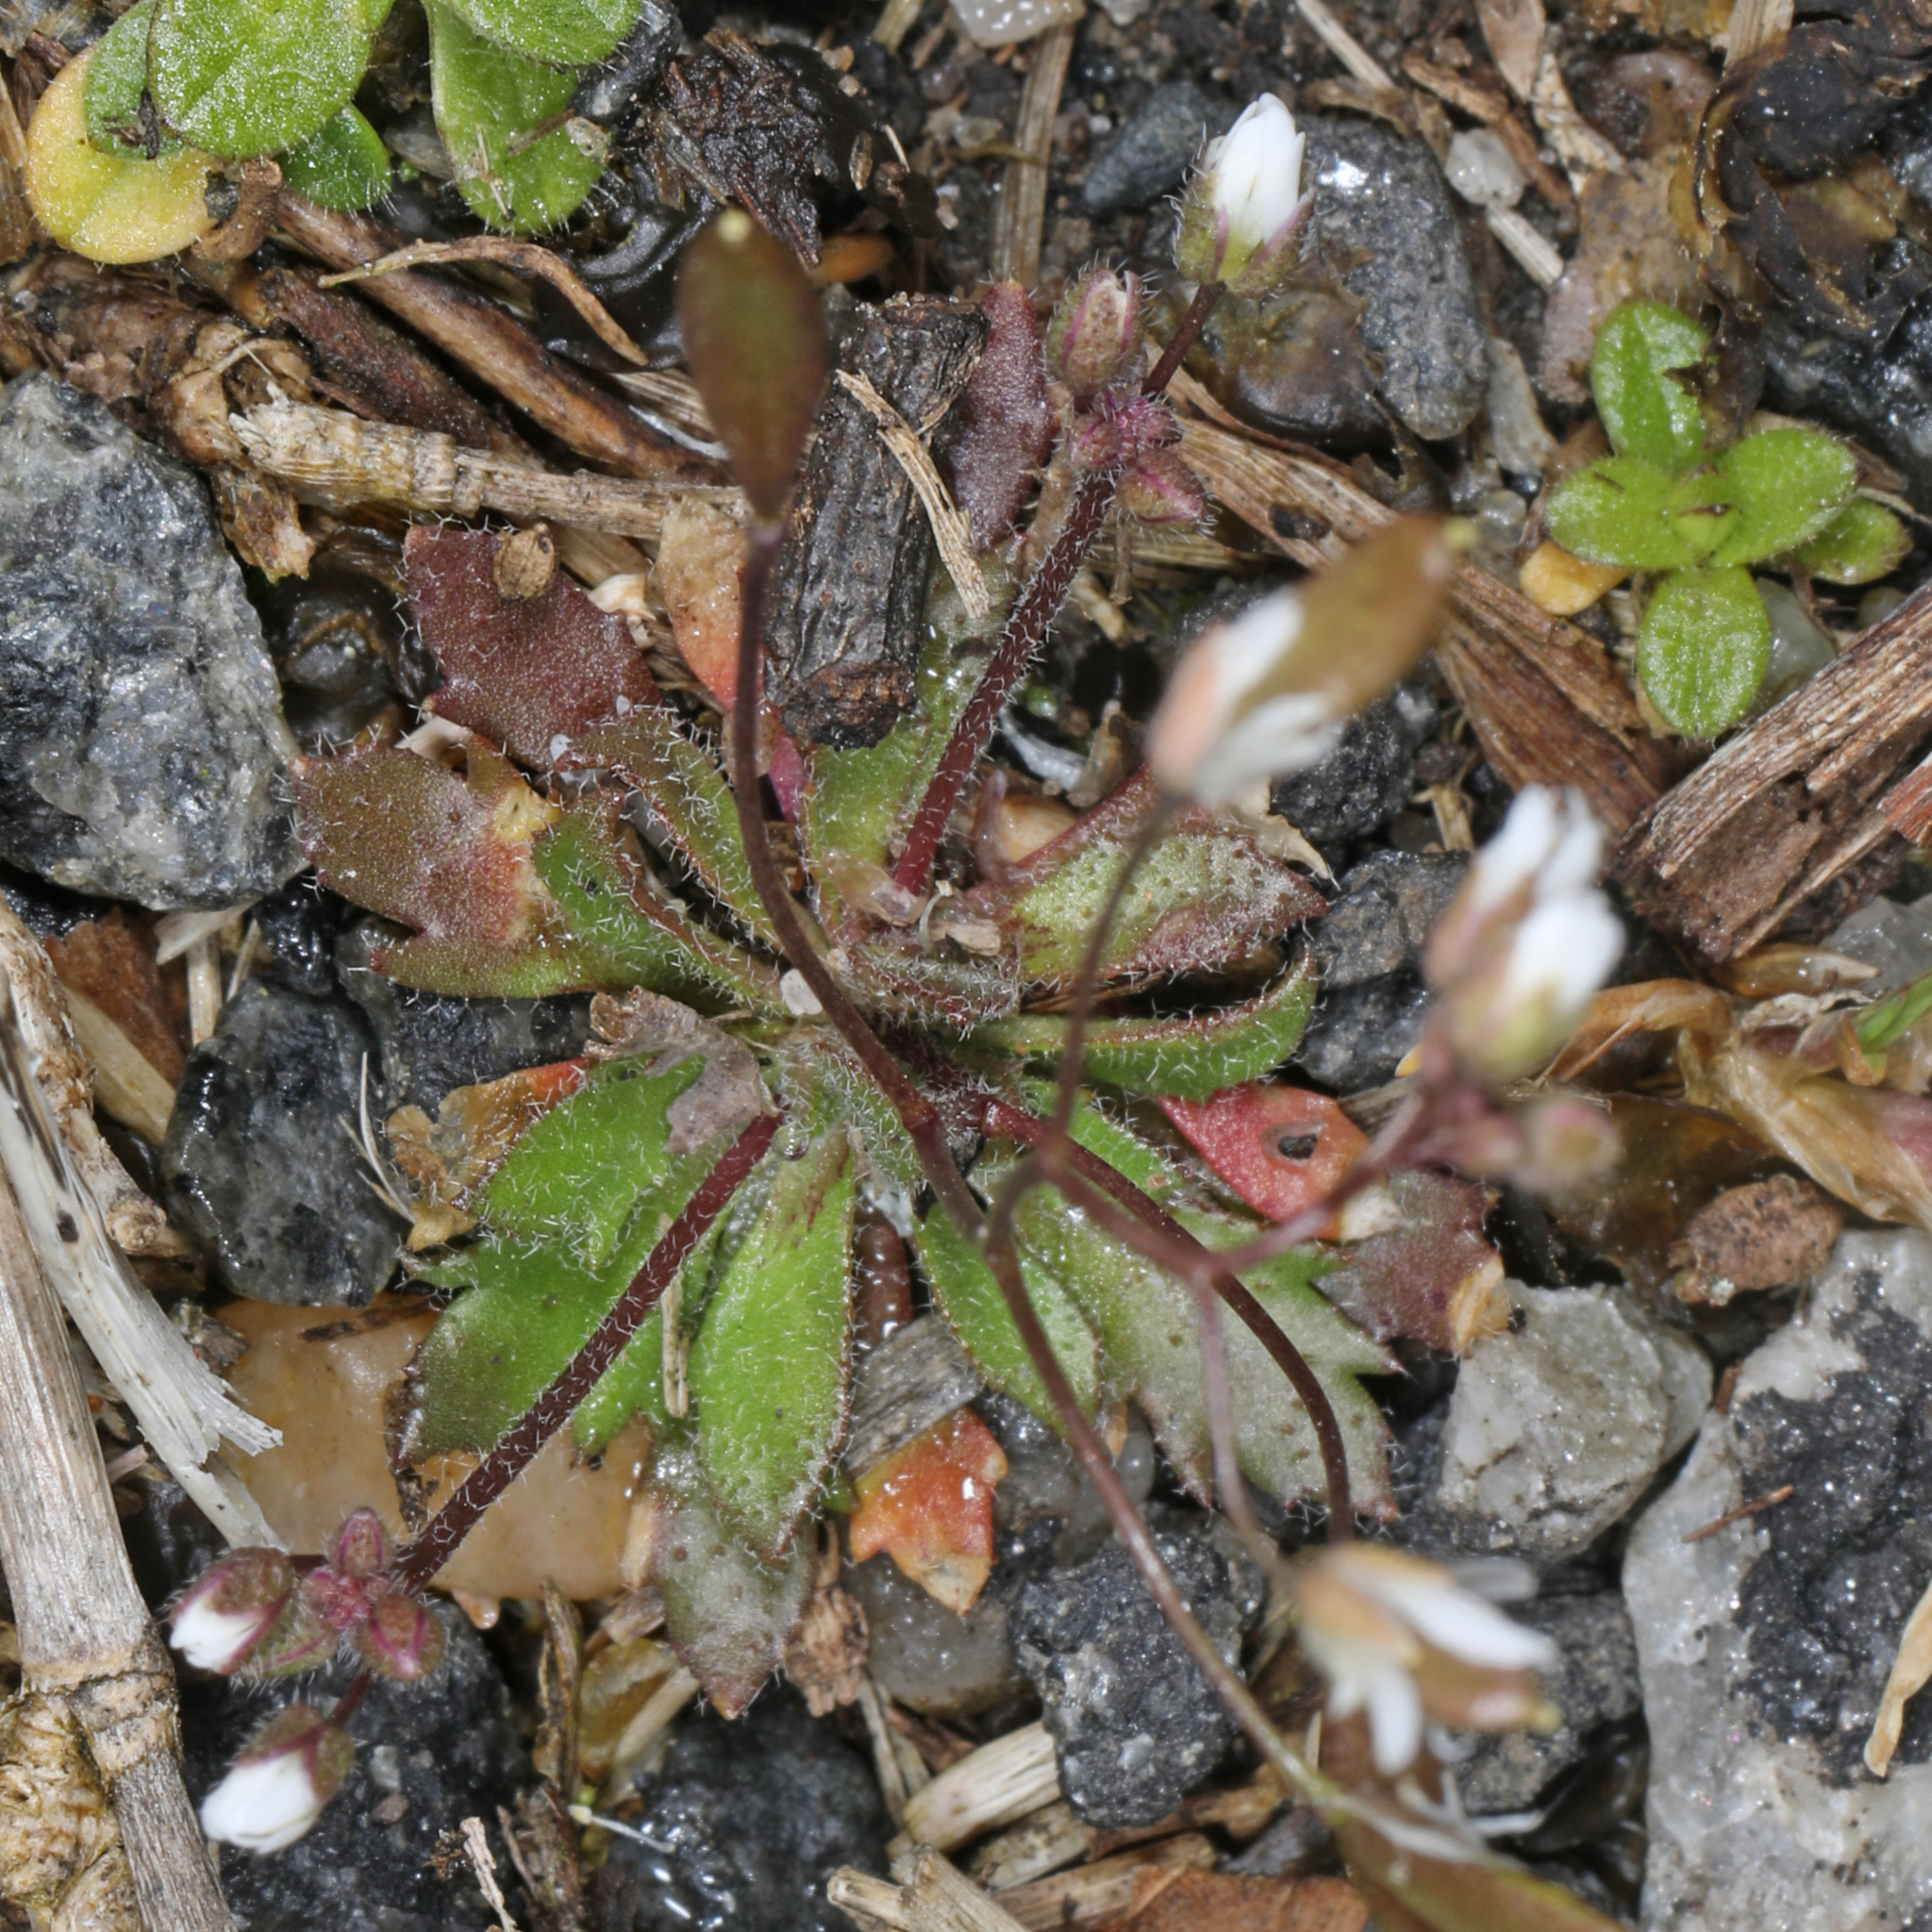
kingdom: Plantae
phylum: Tracheophyta
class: Magnoliopsida
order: Brassicales
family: Brassicaceae
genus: Draba
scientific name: Draba verna
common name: Spring draba
